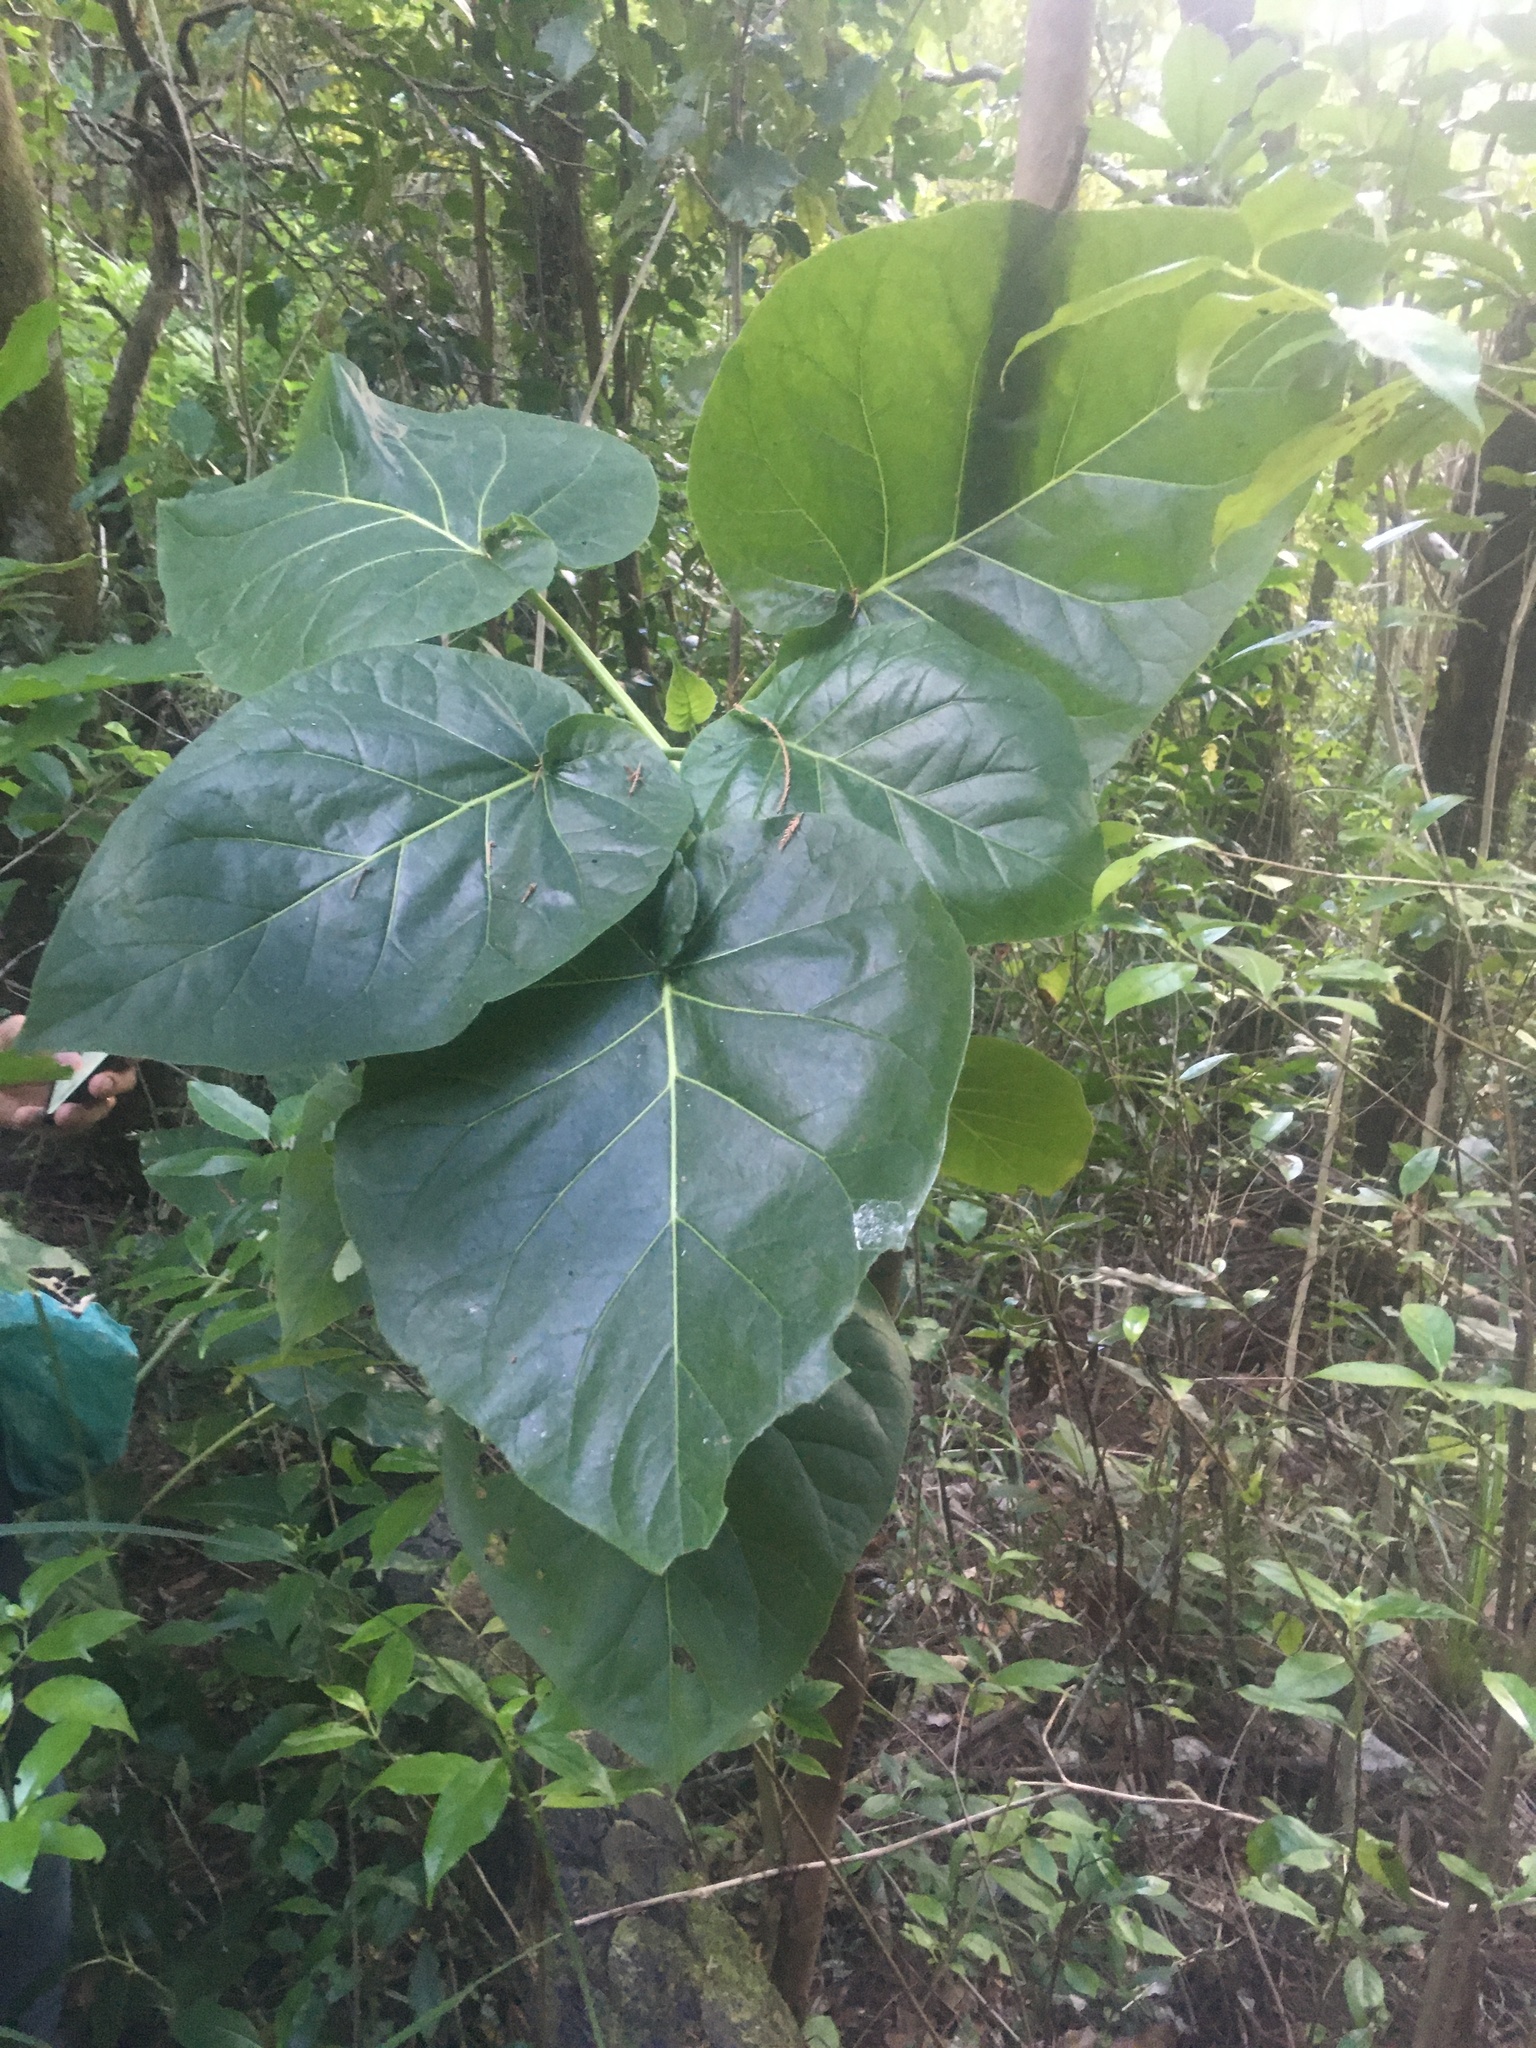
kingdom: Plantae
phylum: Tracheophyta
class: Magnoliopsida
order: Solanales
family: Solanaceae
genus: Solanum
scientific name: Solanum betaceum
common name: Tamarillo
